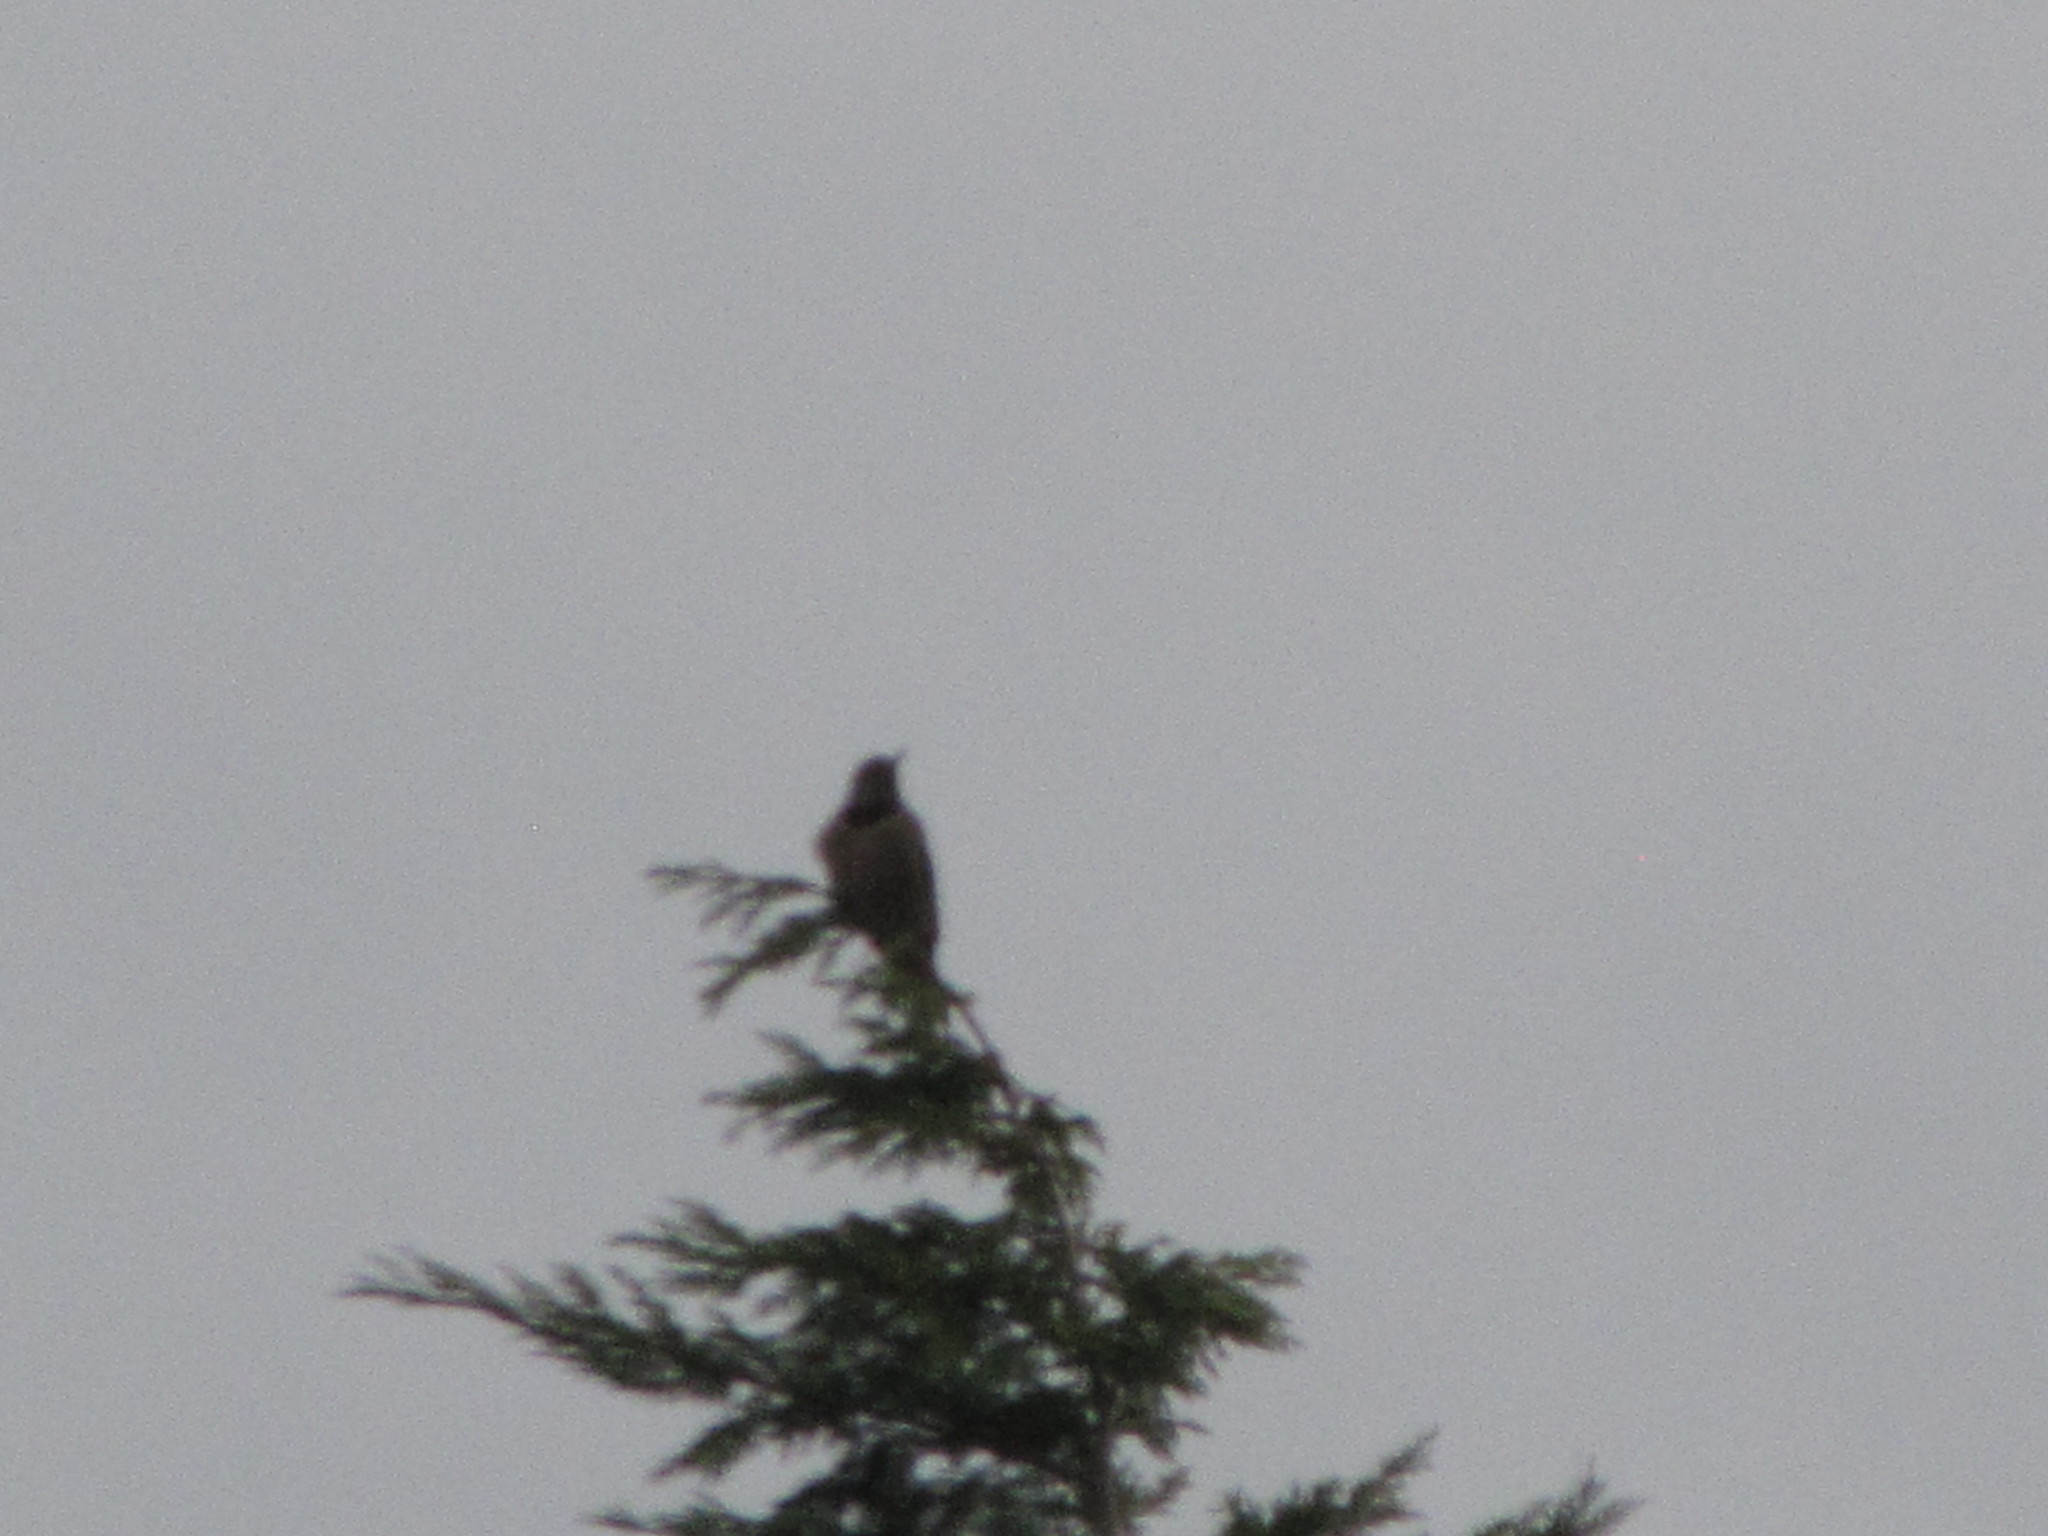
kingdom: Animalia
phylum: Chordata
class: Aves
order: Piciformes
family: Picidae
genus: Colaptes
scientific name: Colaptes auratus
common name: Northern flicker
